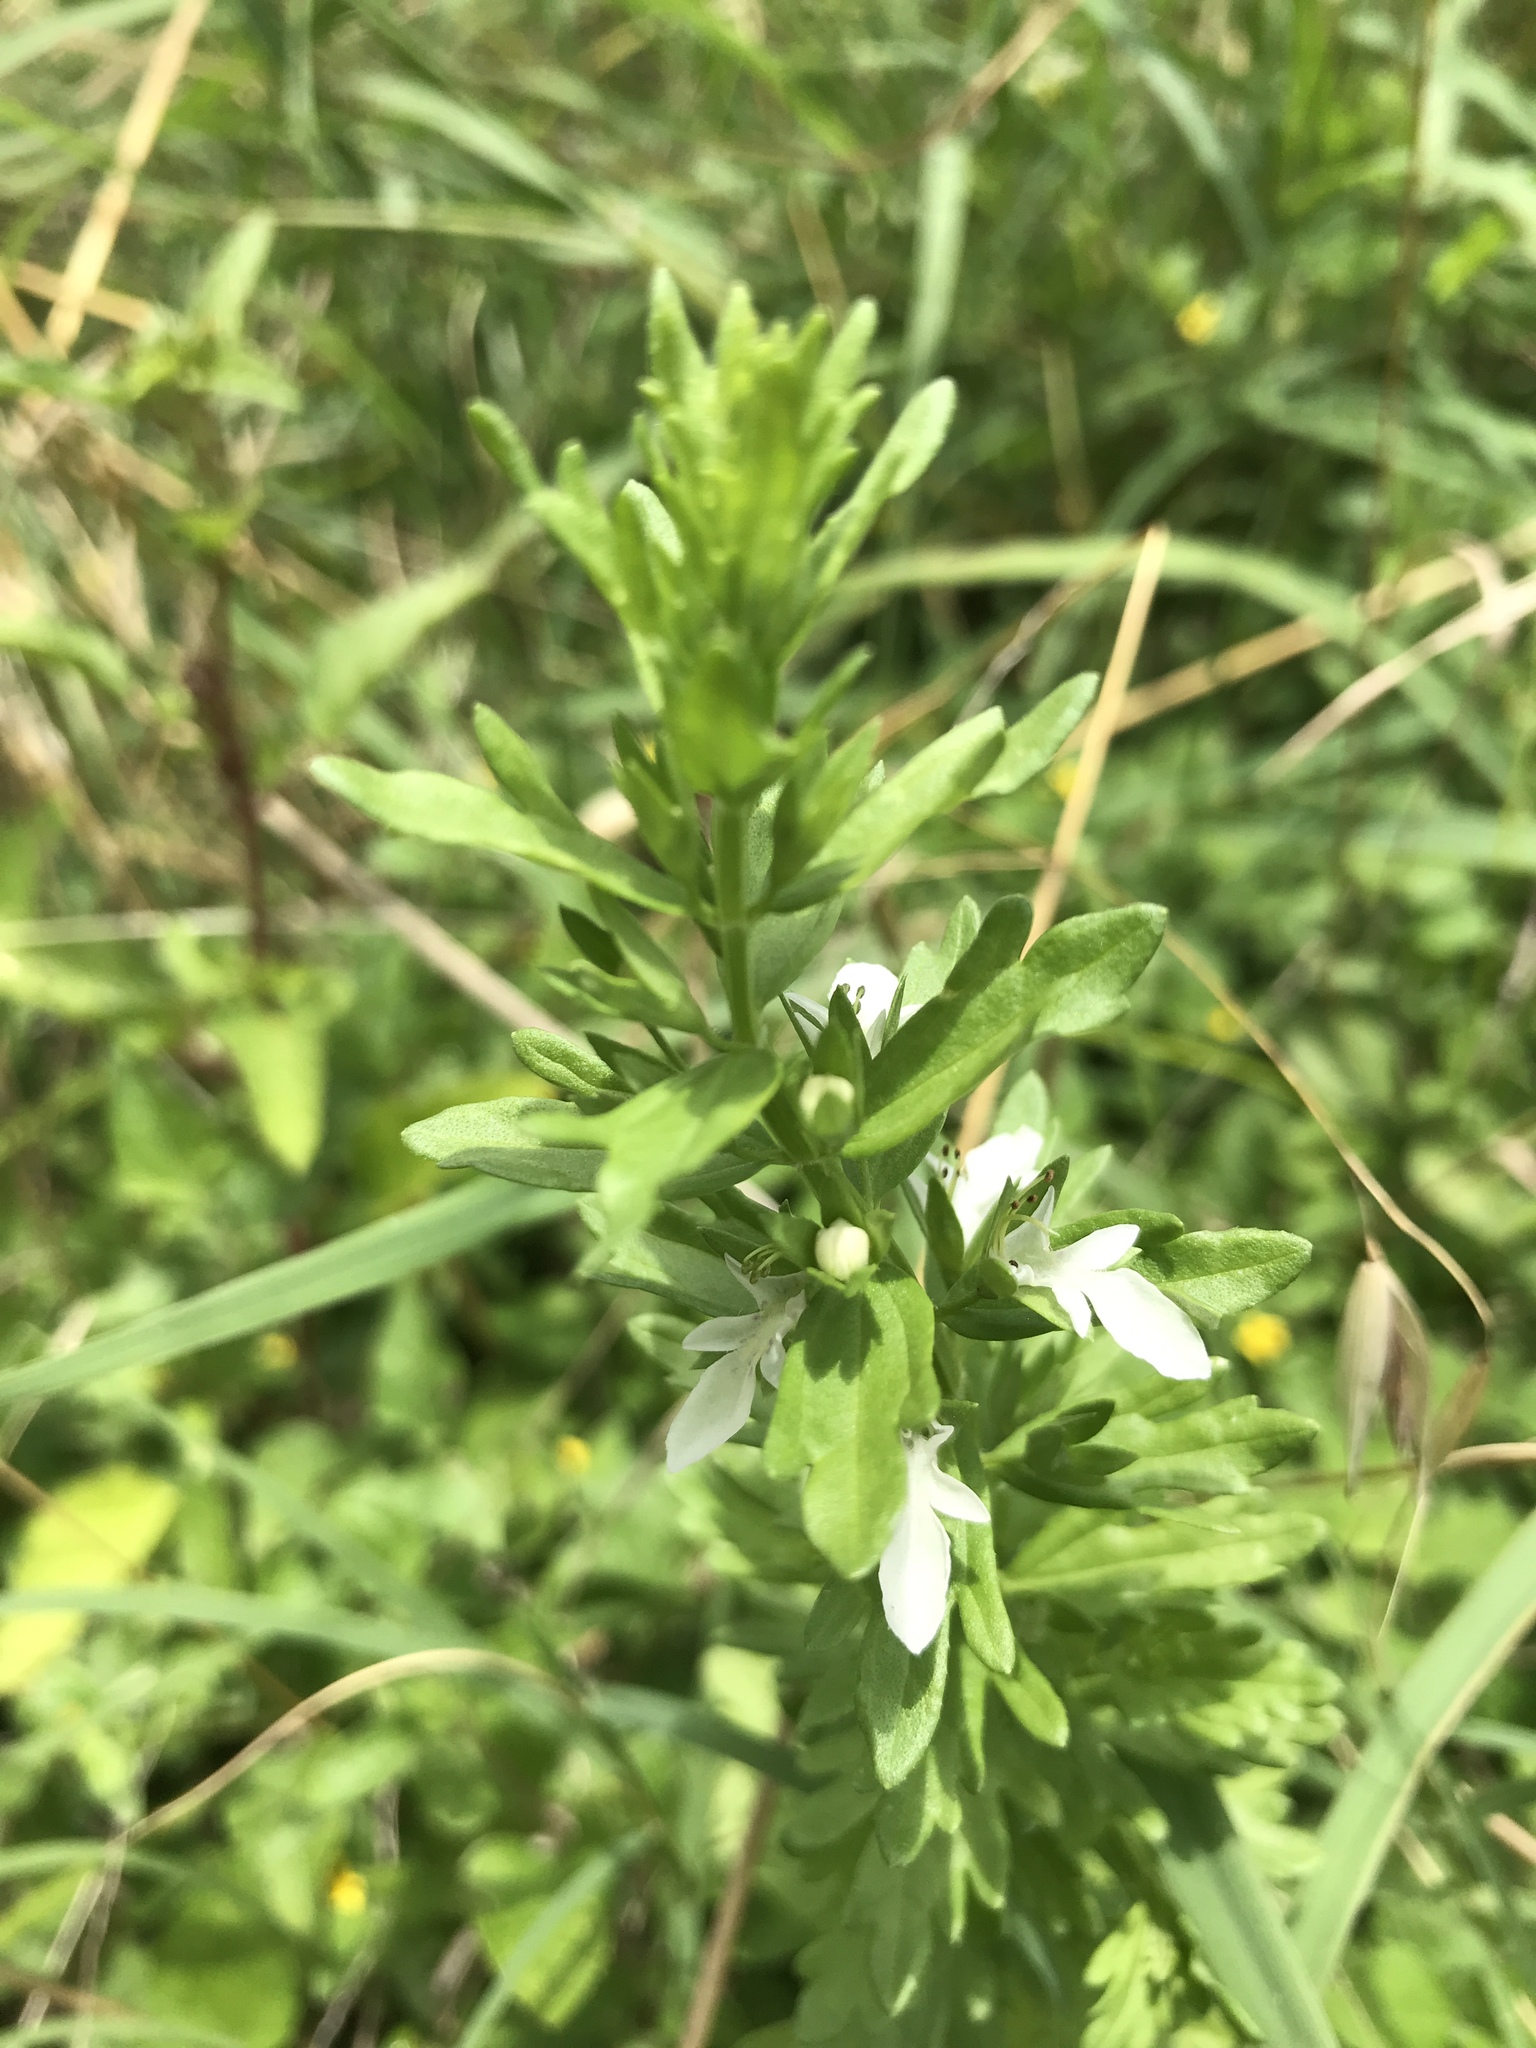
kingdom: Plantae
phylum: Tracheophyta
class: Magnoliopsida
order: Lamiales
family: Lamiaceae
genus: Teucrium
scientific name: Teucrium cubense
